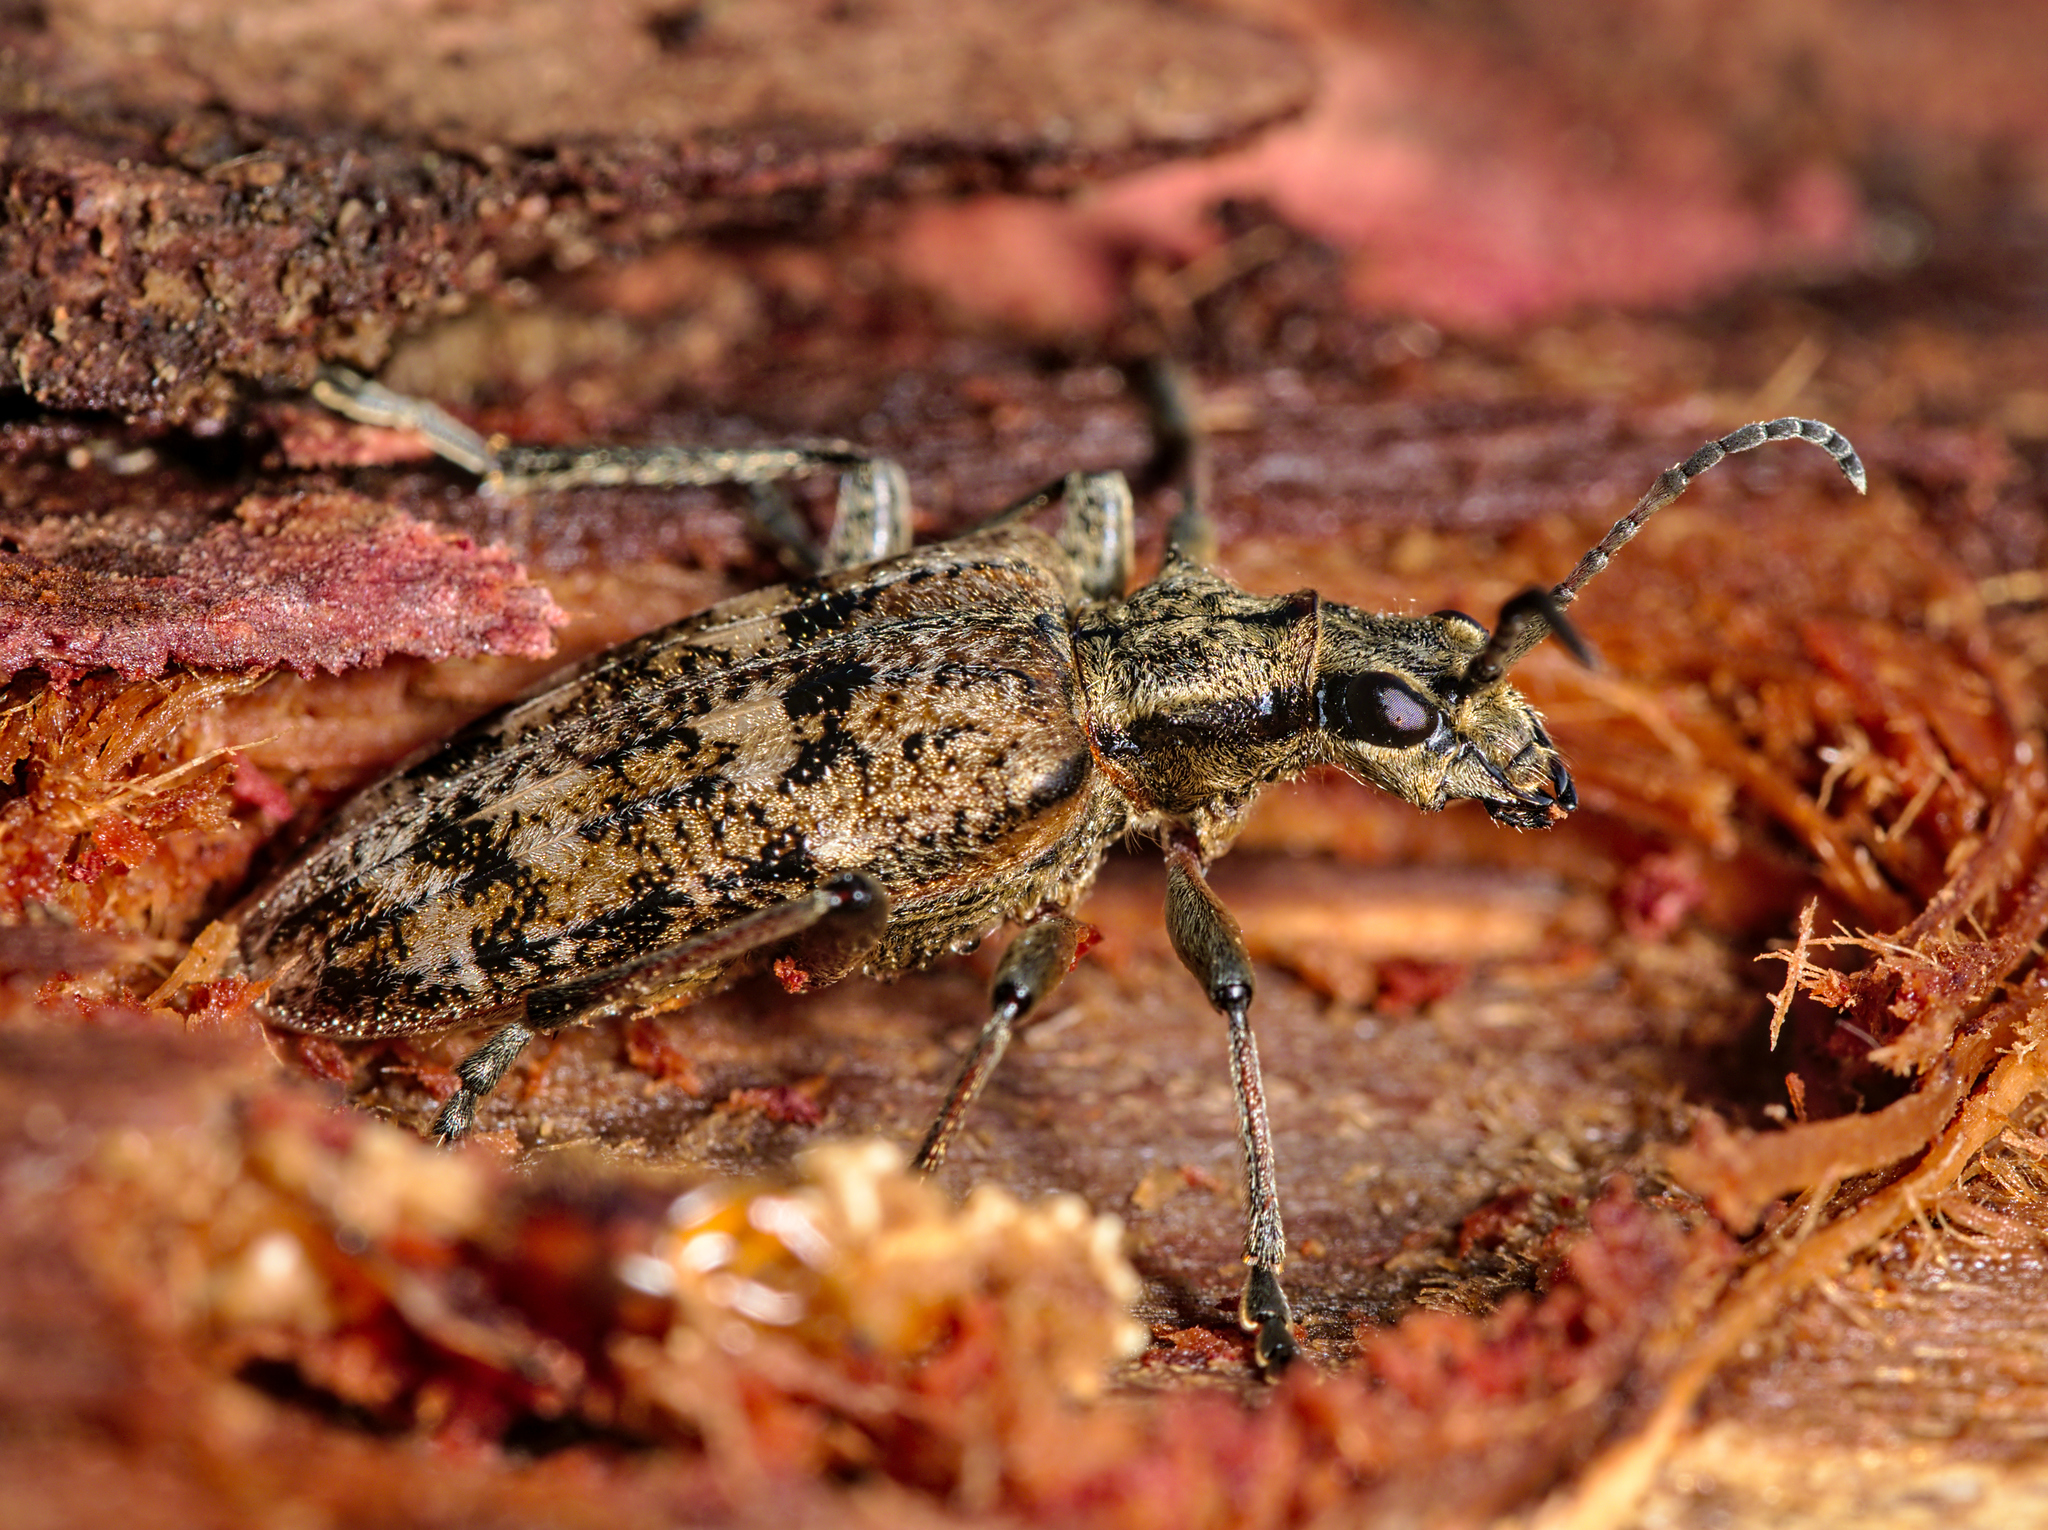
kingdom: Animalia
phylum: Arthropoda
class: Insecta
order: Coleoptera
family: Cerambycidae
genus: Rhagium
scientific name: Rhagium inquisitor
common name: Ribbed pine borer
